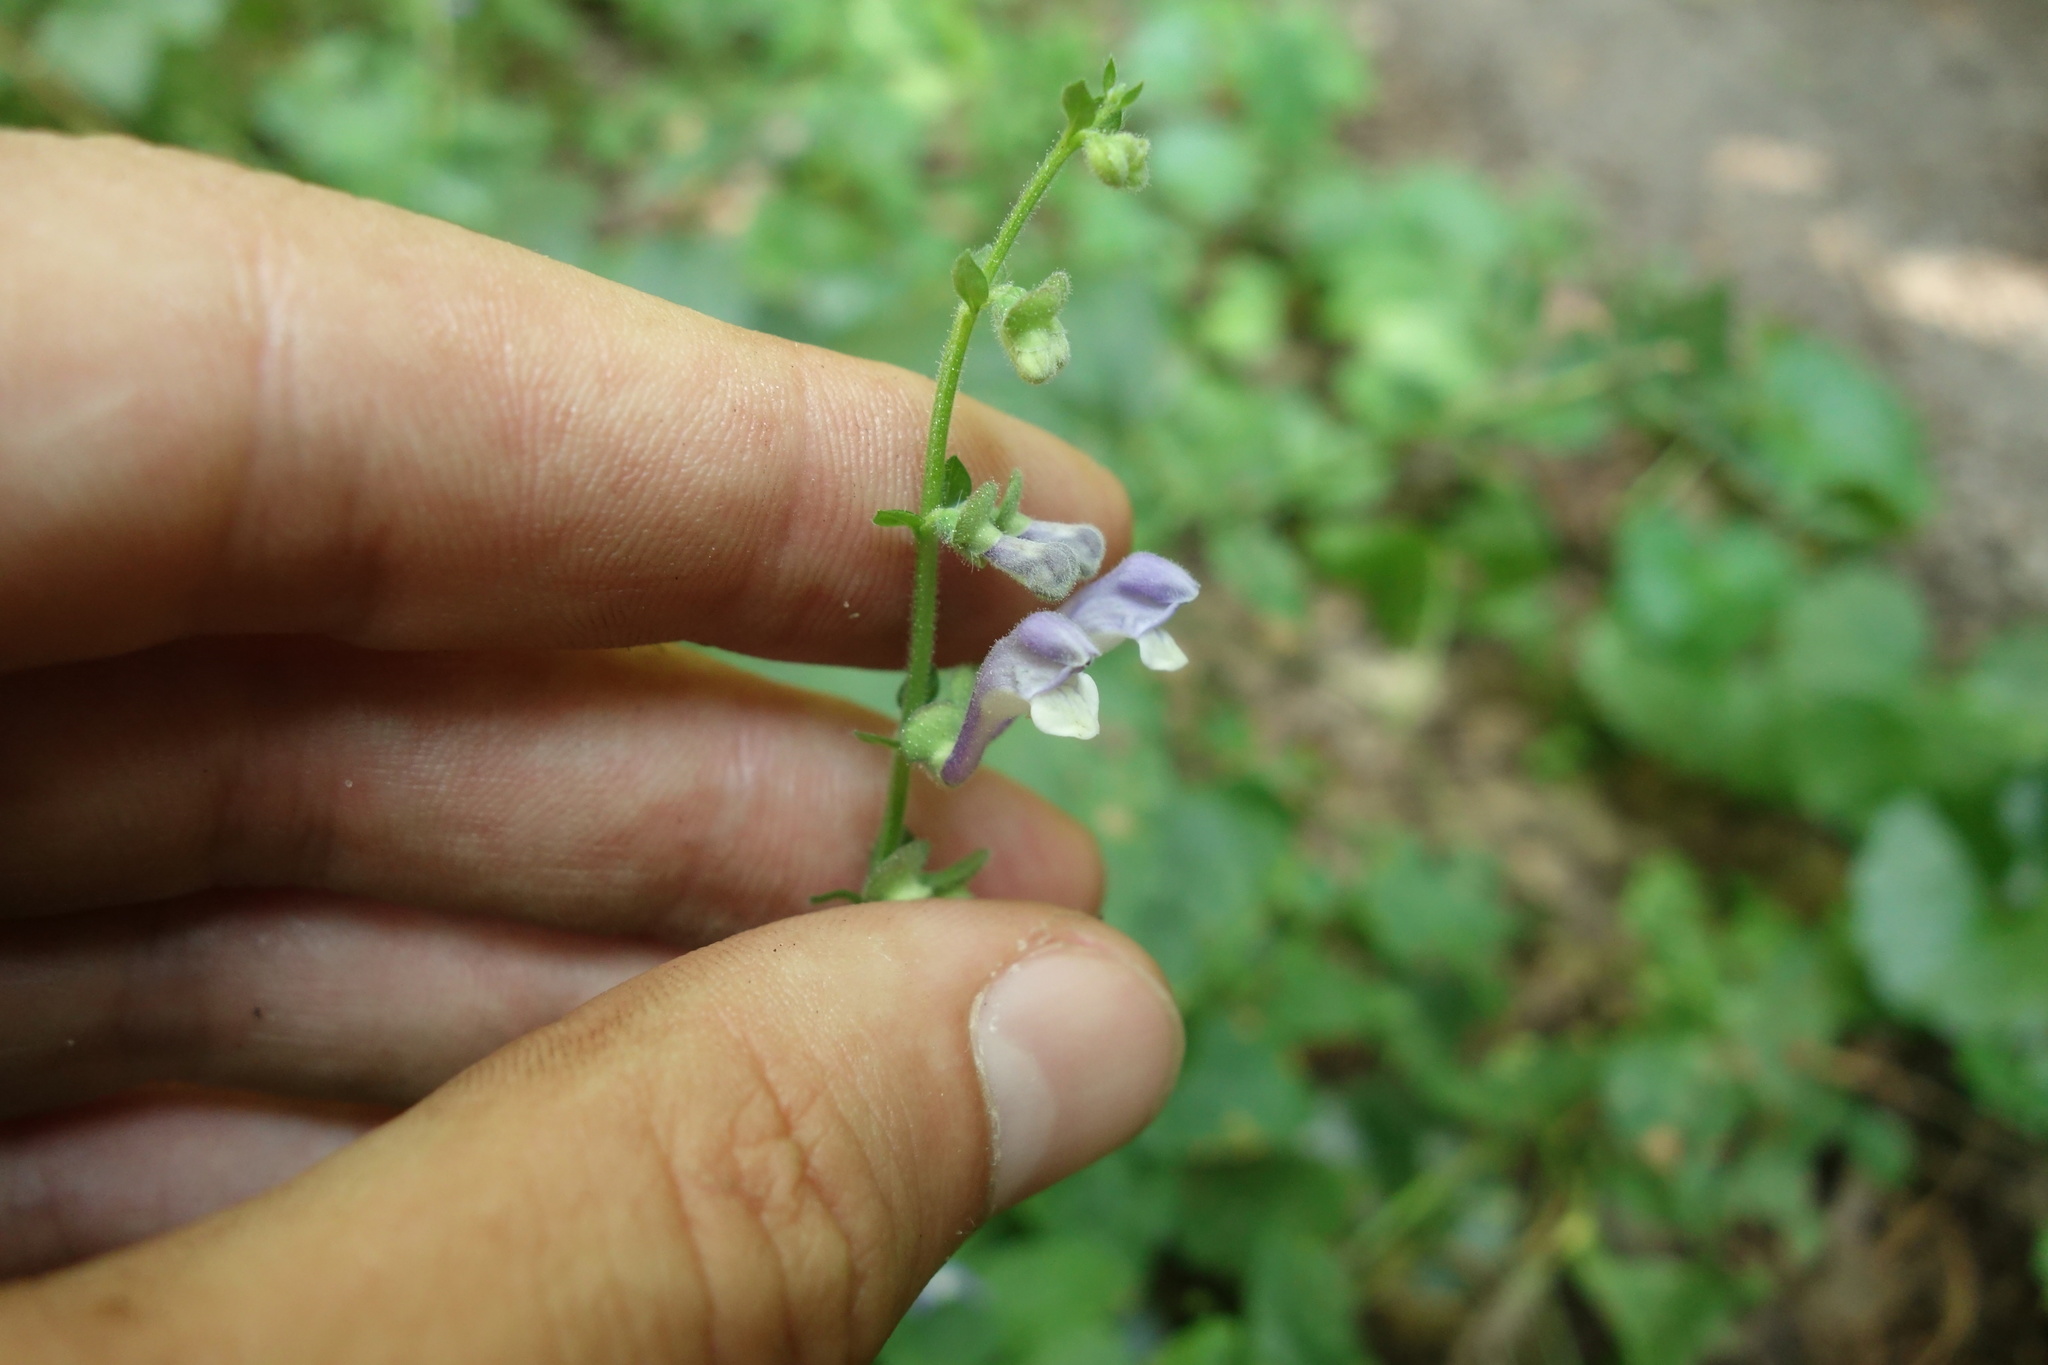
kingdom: Plantae
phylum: Tracheophyta
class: Magnoliopsida
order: Lamiales
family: Lamiaceae
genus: Scutellaria
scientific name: Scutellaria altissima
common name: Somerset skullcap
